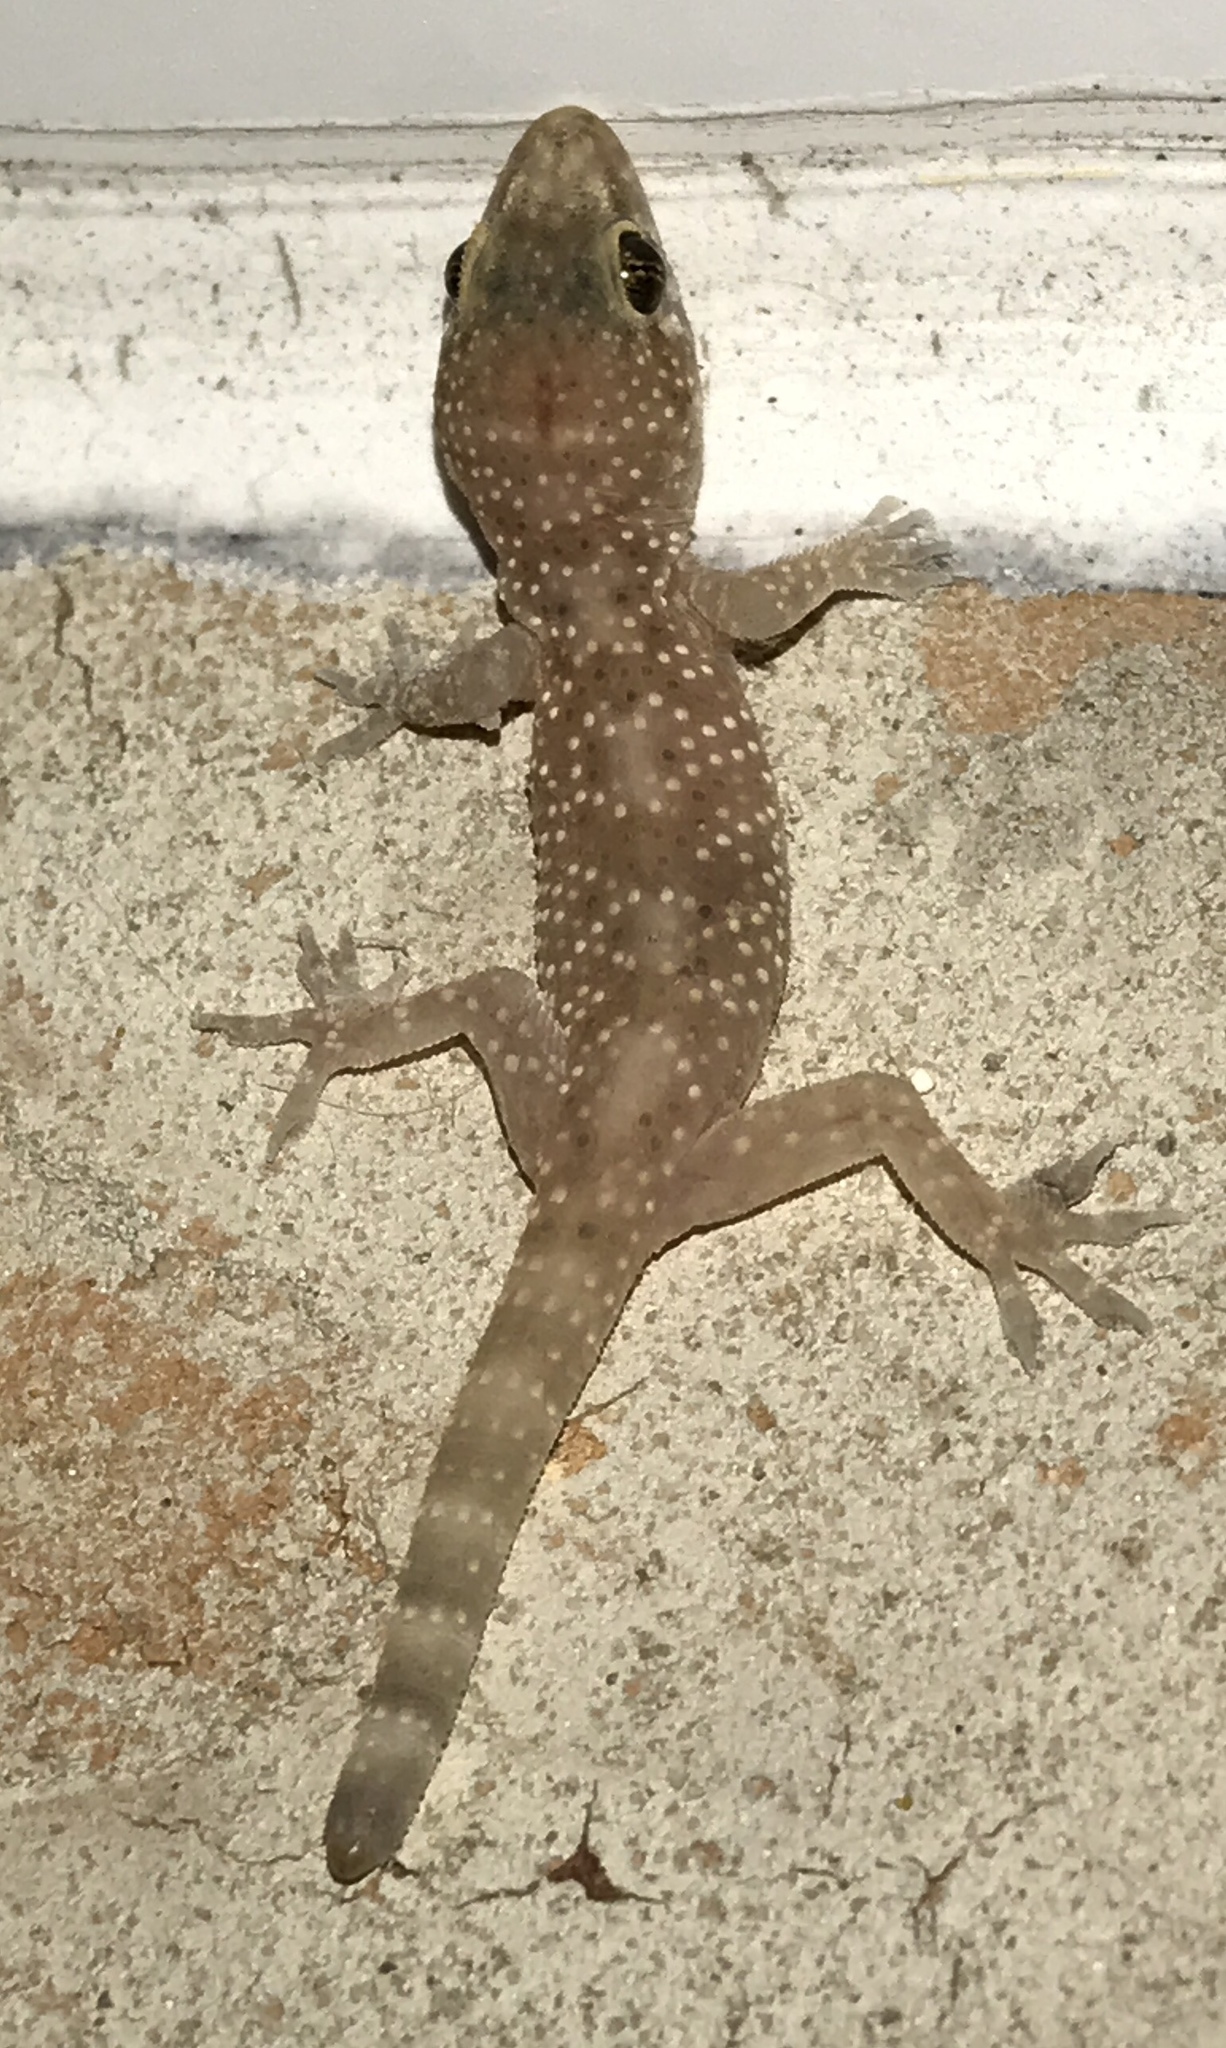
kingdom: Animalia
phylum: Chordata
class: Squamata
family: Gekkonidae
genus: Hemidactylus
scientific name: Hemidactylus turcicus
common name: Turkish gecko
